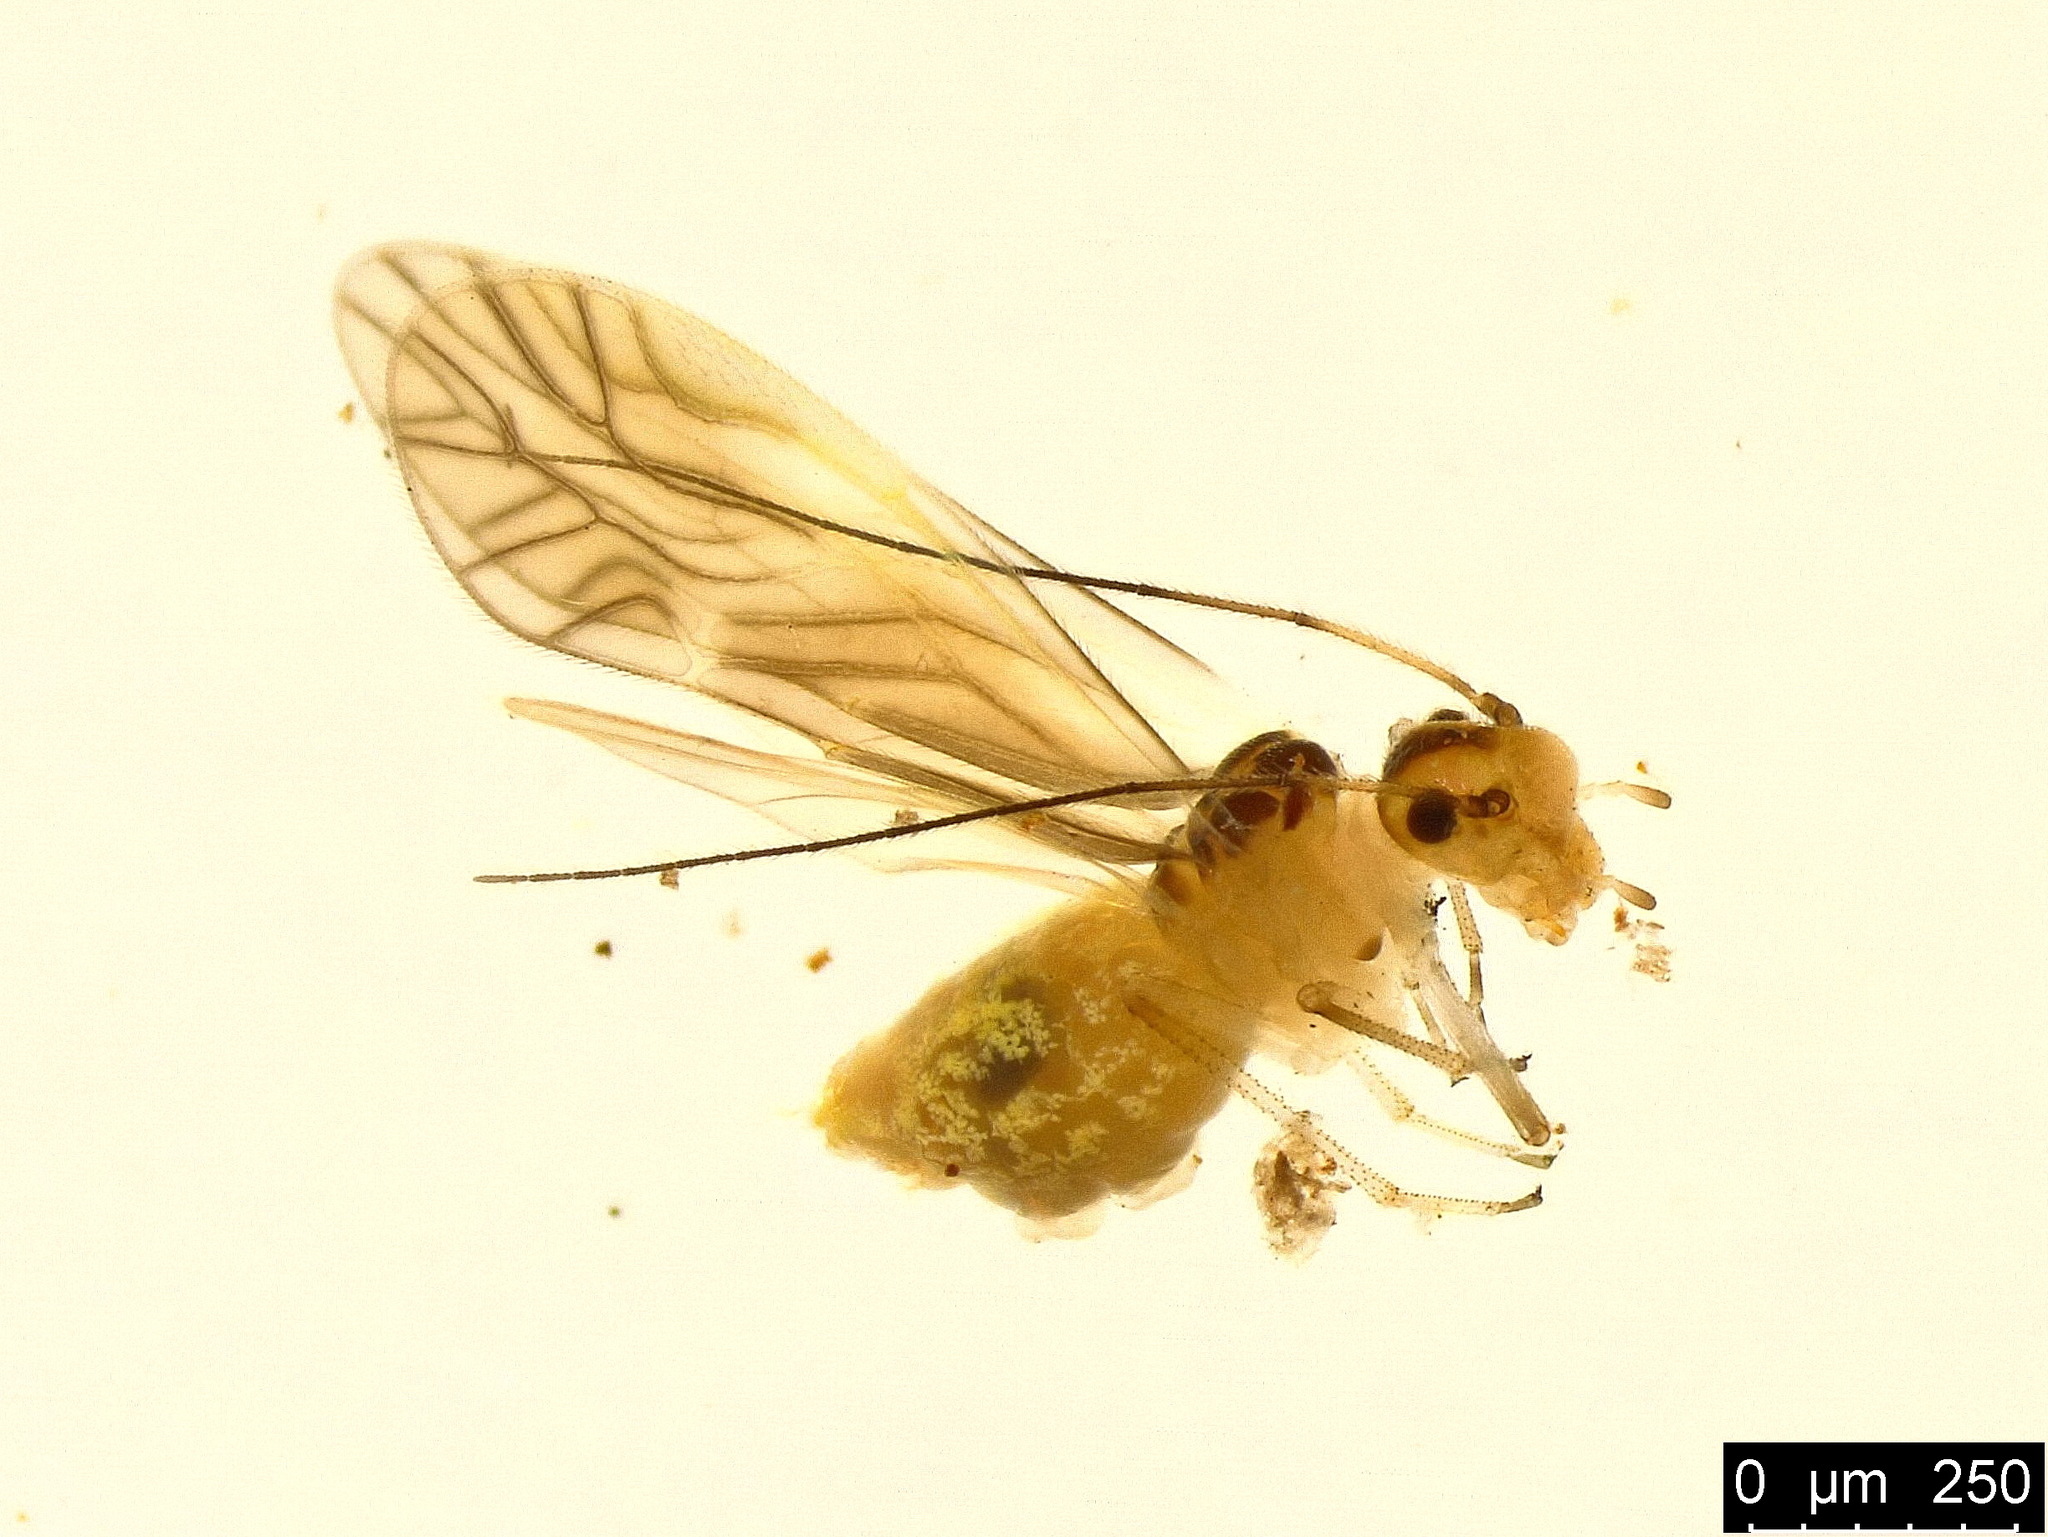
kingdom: Animalia
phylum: Arthropoda
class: Insecta
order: Psocodea
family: Caeciliusidae
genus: Valenzuela
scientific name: Valenzuela flavidus
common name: Yellow barklouse
